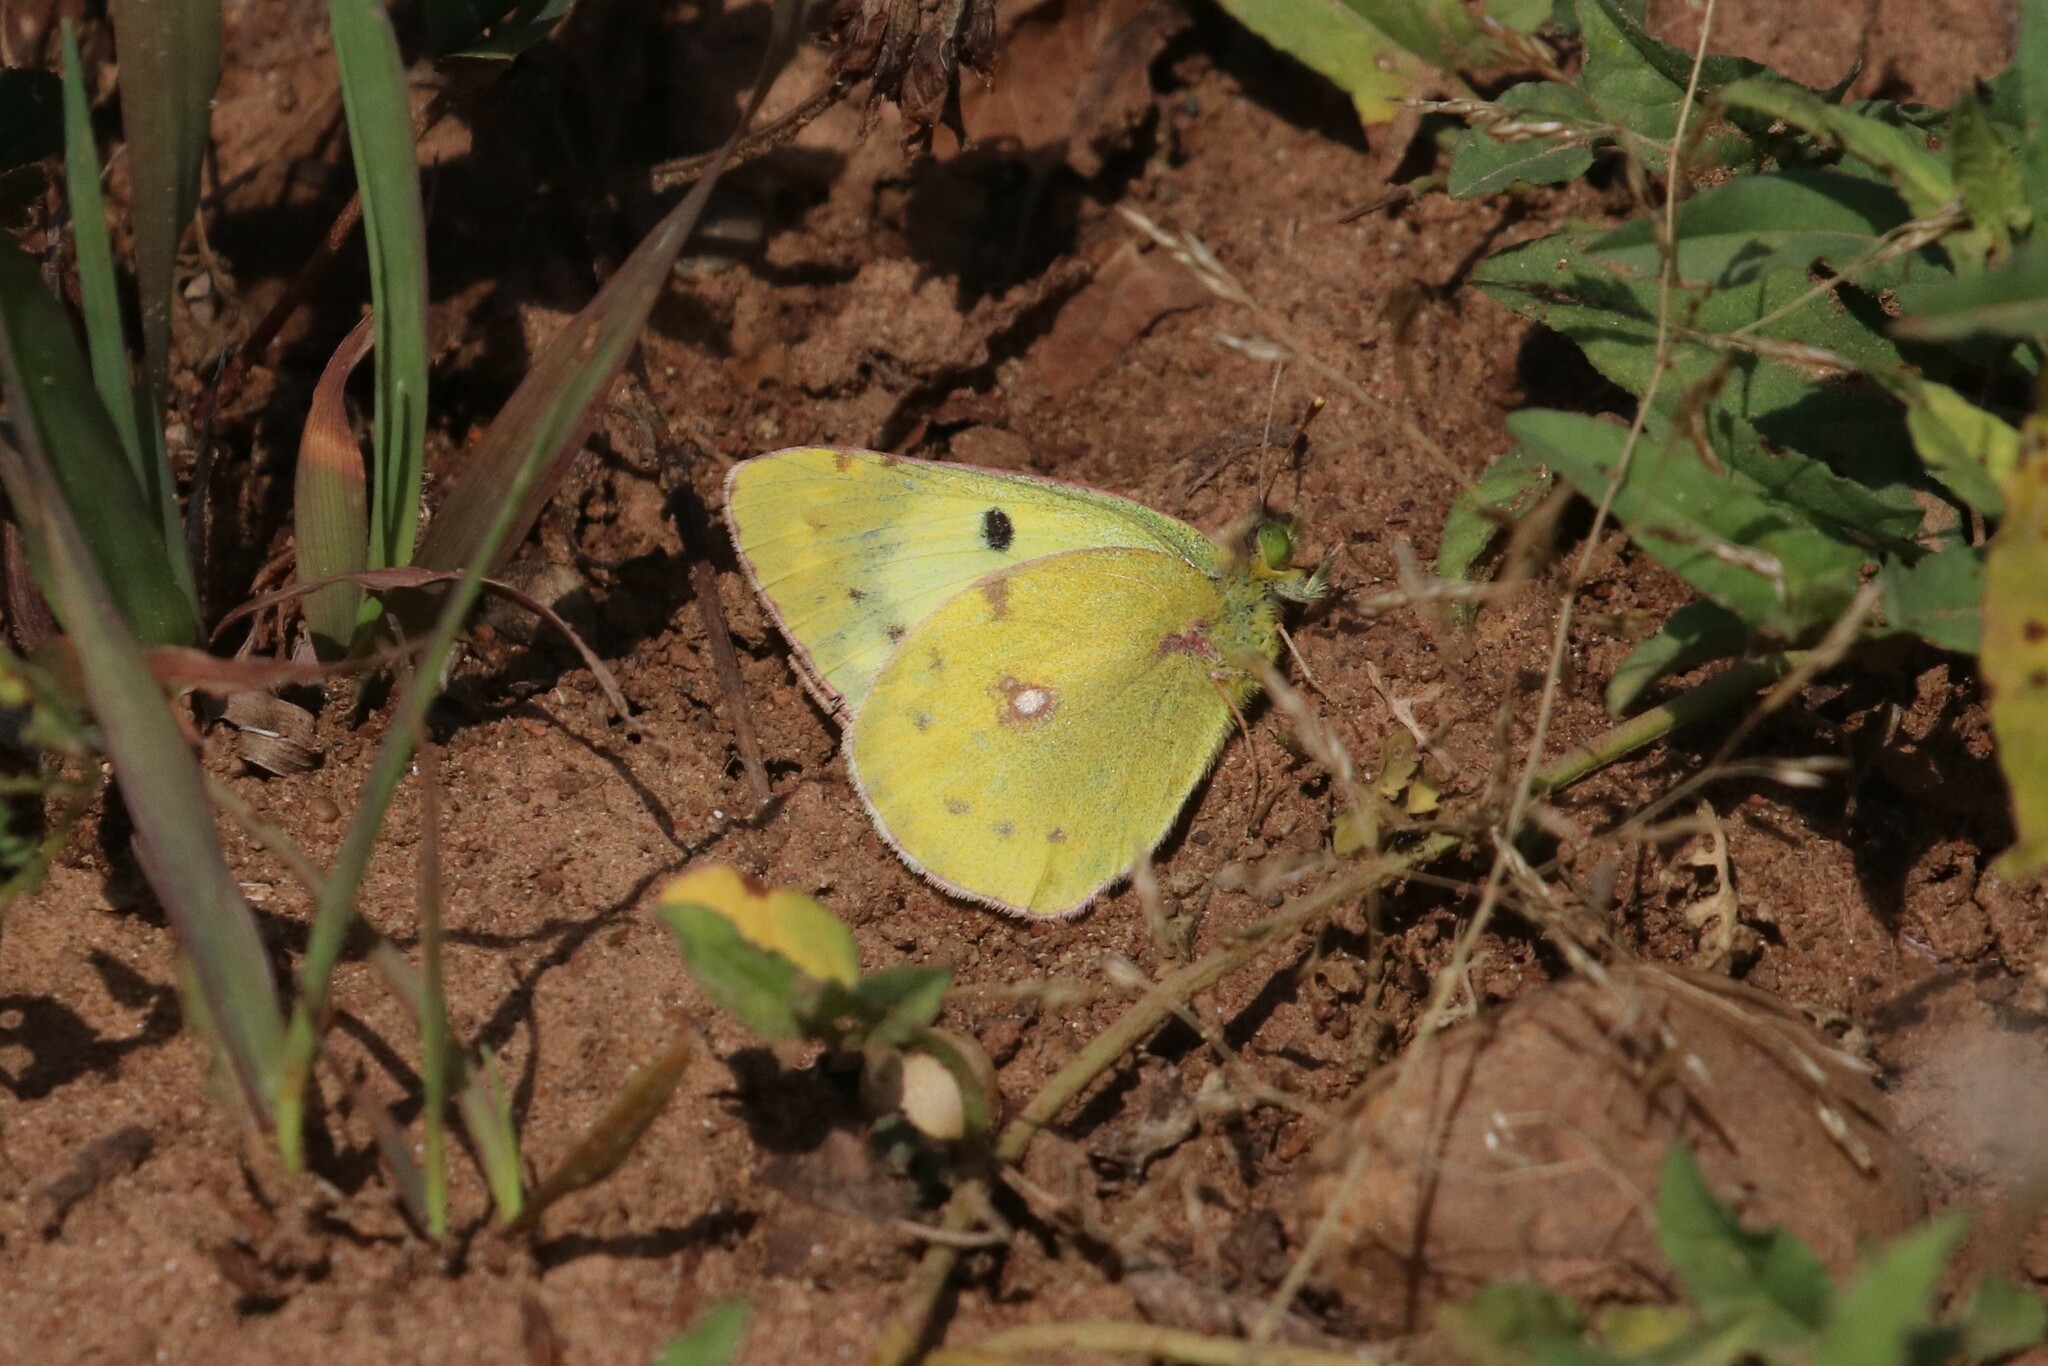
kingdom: Animalia
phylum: Arthropoda
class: Insecta
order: Lepidoptera
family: Pieridae
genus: Colias
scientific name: Colias hyale
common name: Pale clouded yellow
